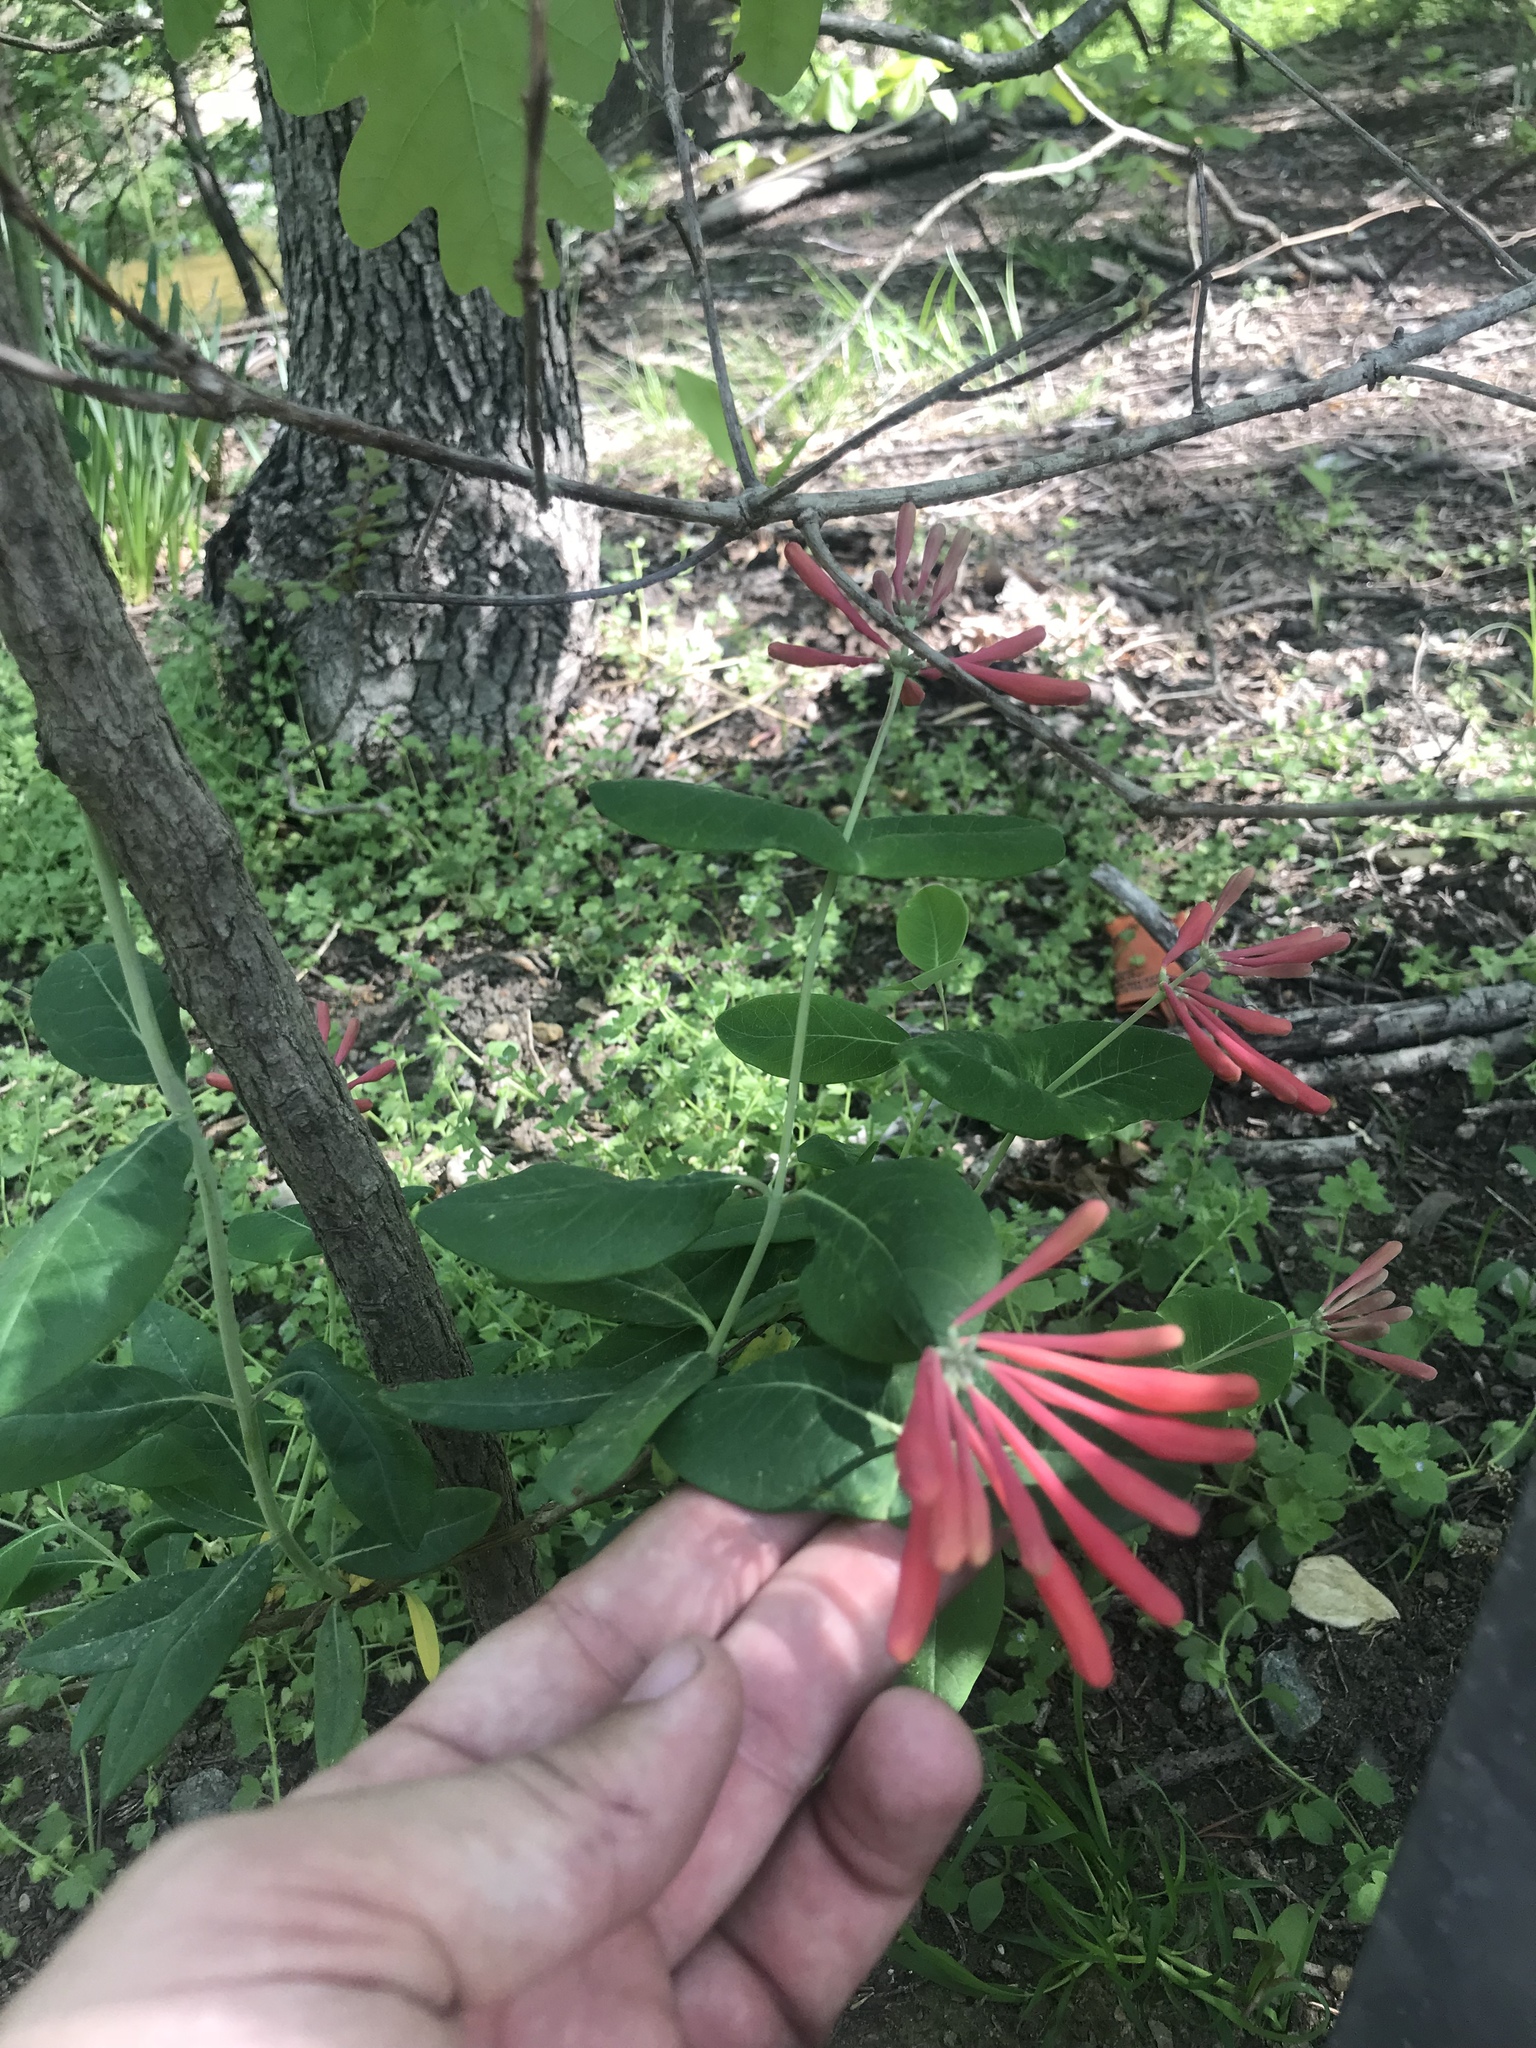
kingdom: Plantae
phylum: Tracheophyta
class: Magnoliopsida
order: Dipsacales
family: Caprifoliaceae
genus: Lonicera
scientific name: Lonicera sempervirens
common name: Coral honeysuckle
